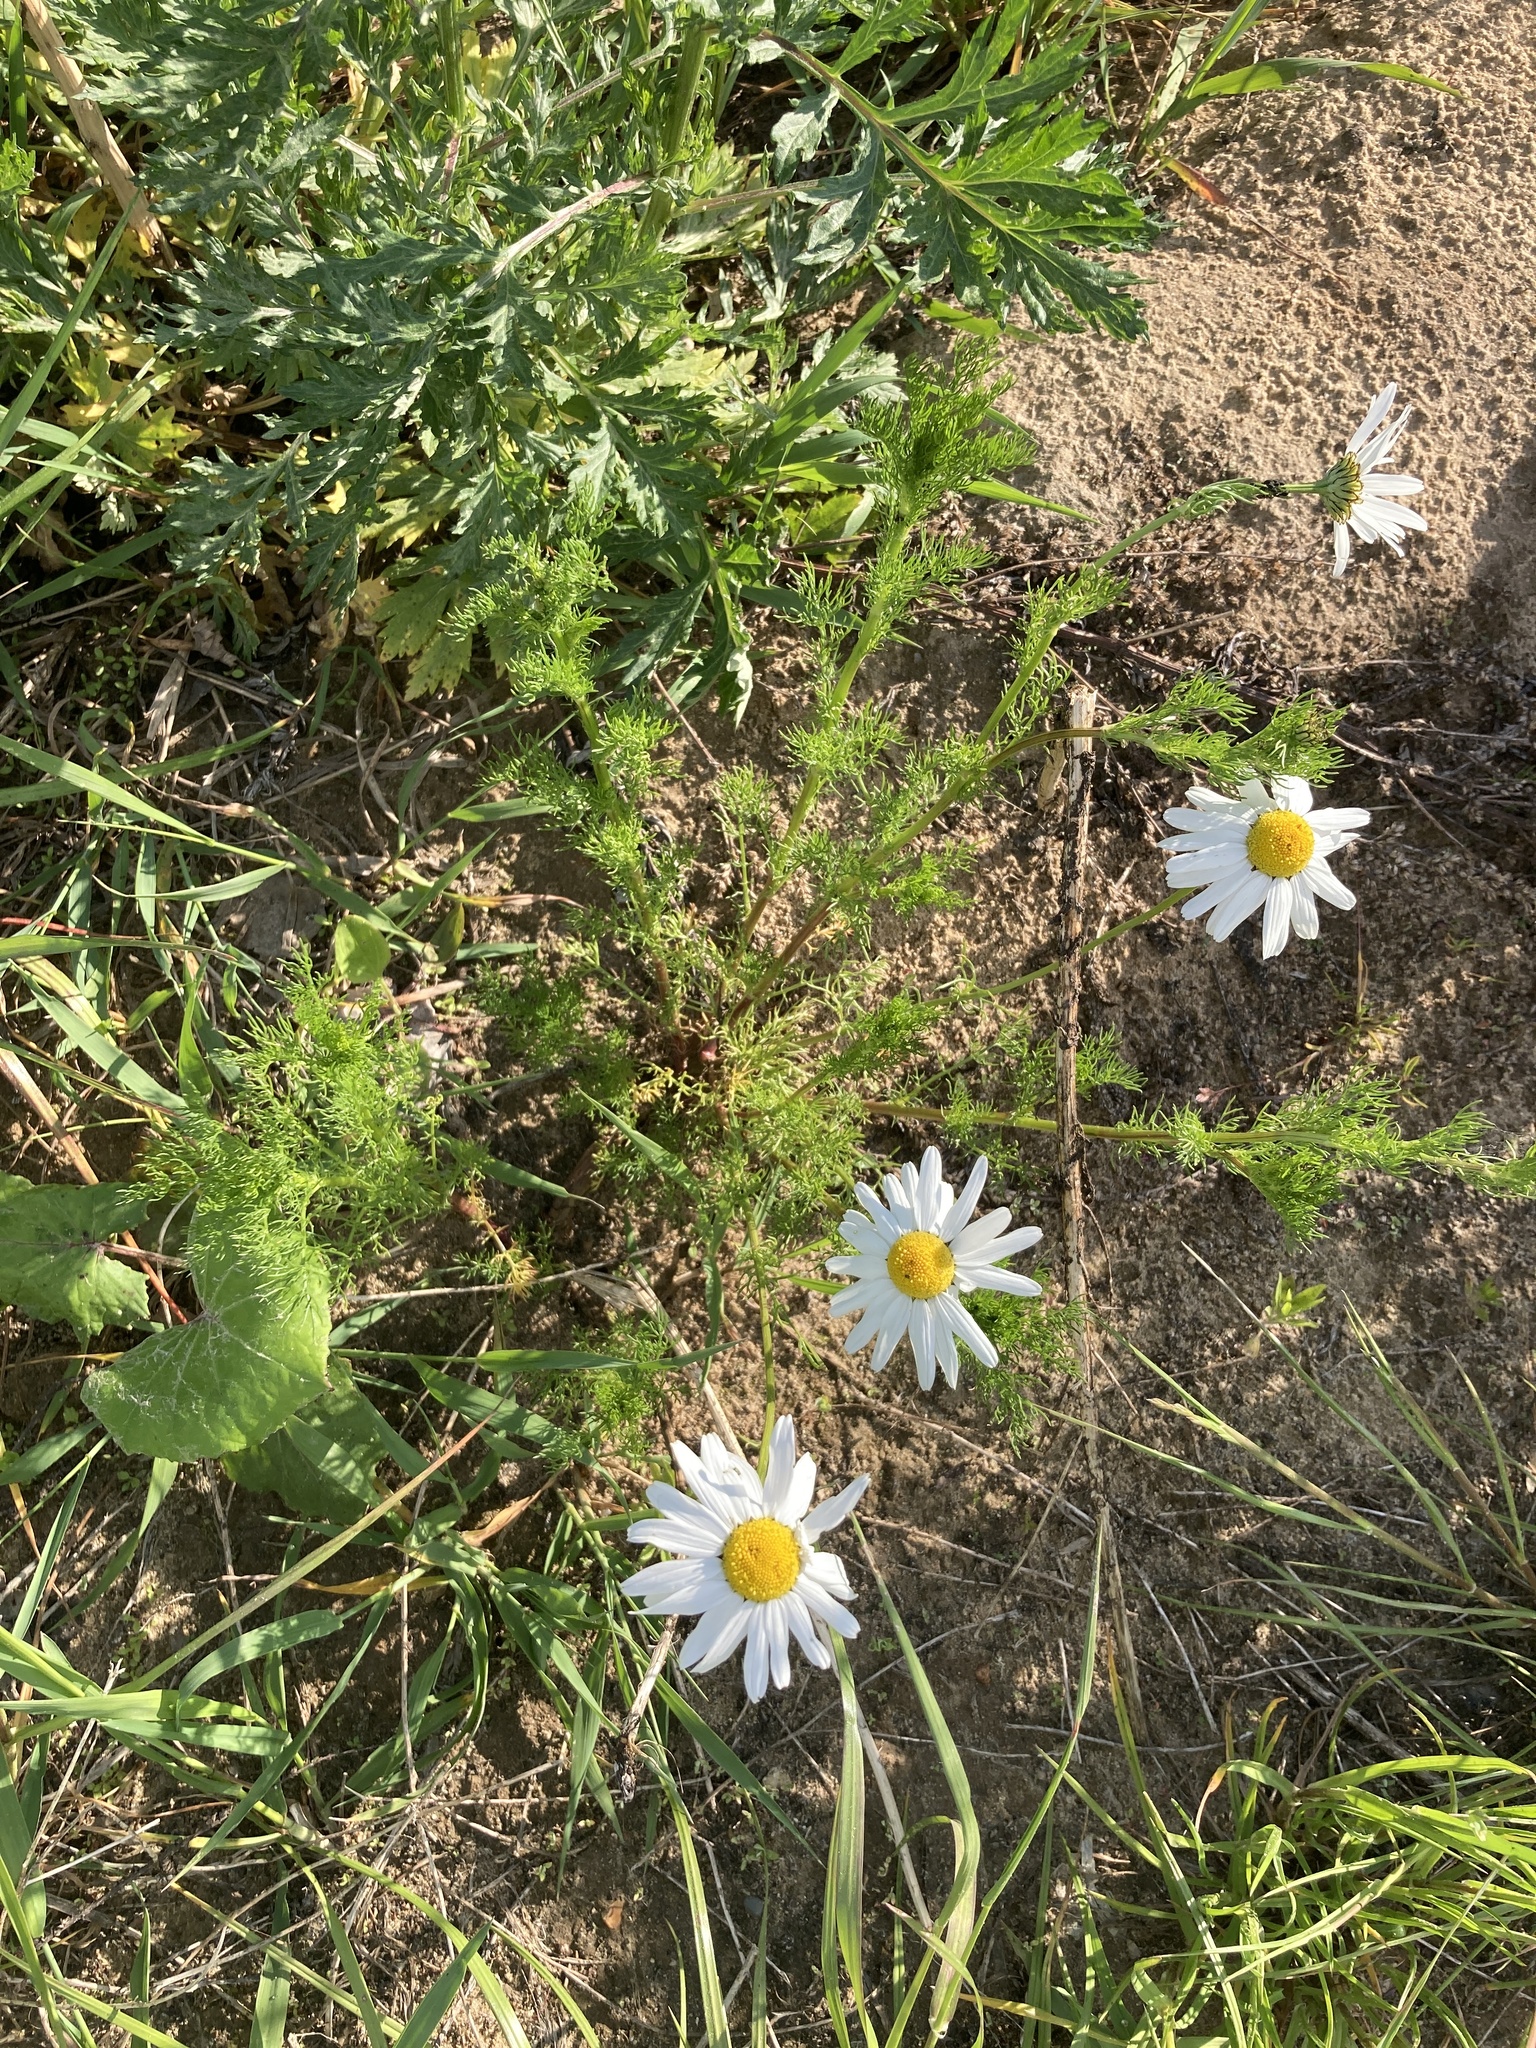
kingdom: Plantae
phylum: Tracheophyta
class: Magnoliopsida
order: Asterales
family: Asteraceae
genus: Tripleurospermum
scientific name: Tripleurospermum inodorum
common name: Scentless mayweed
